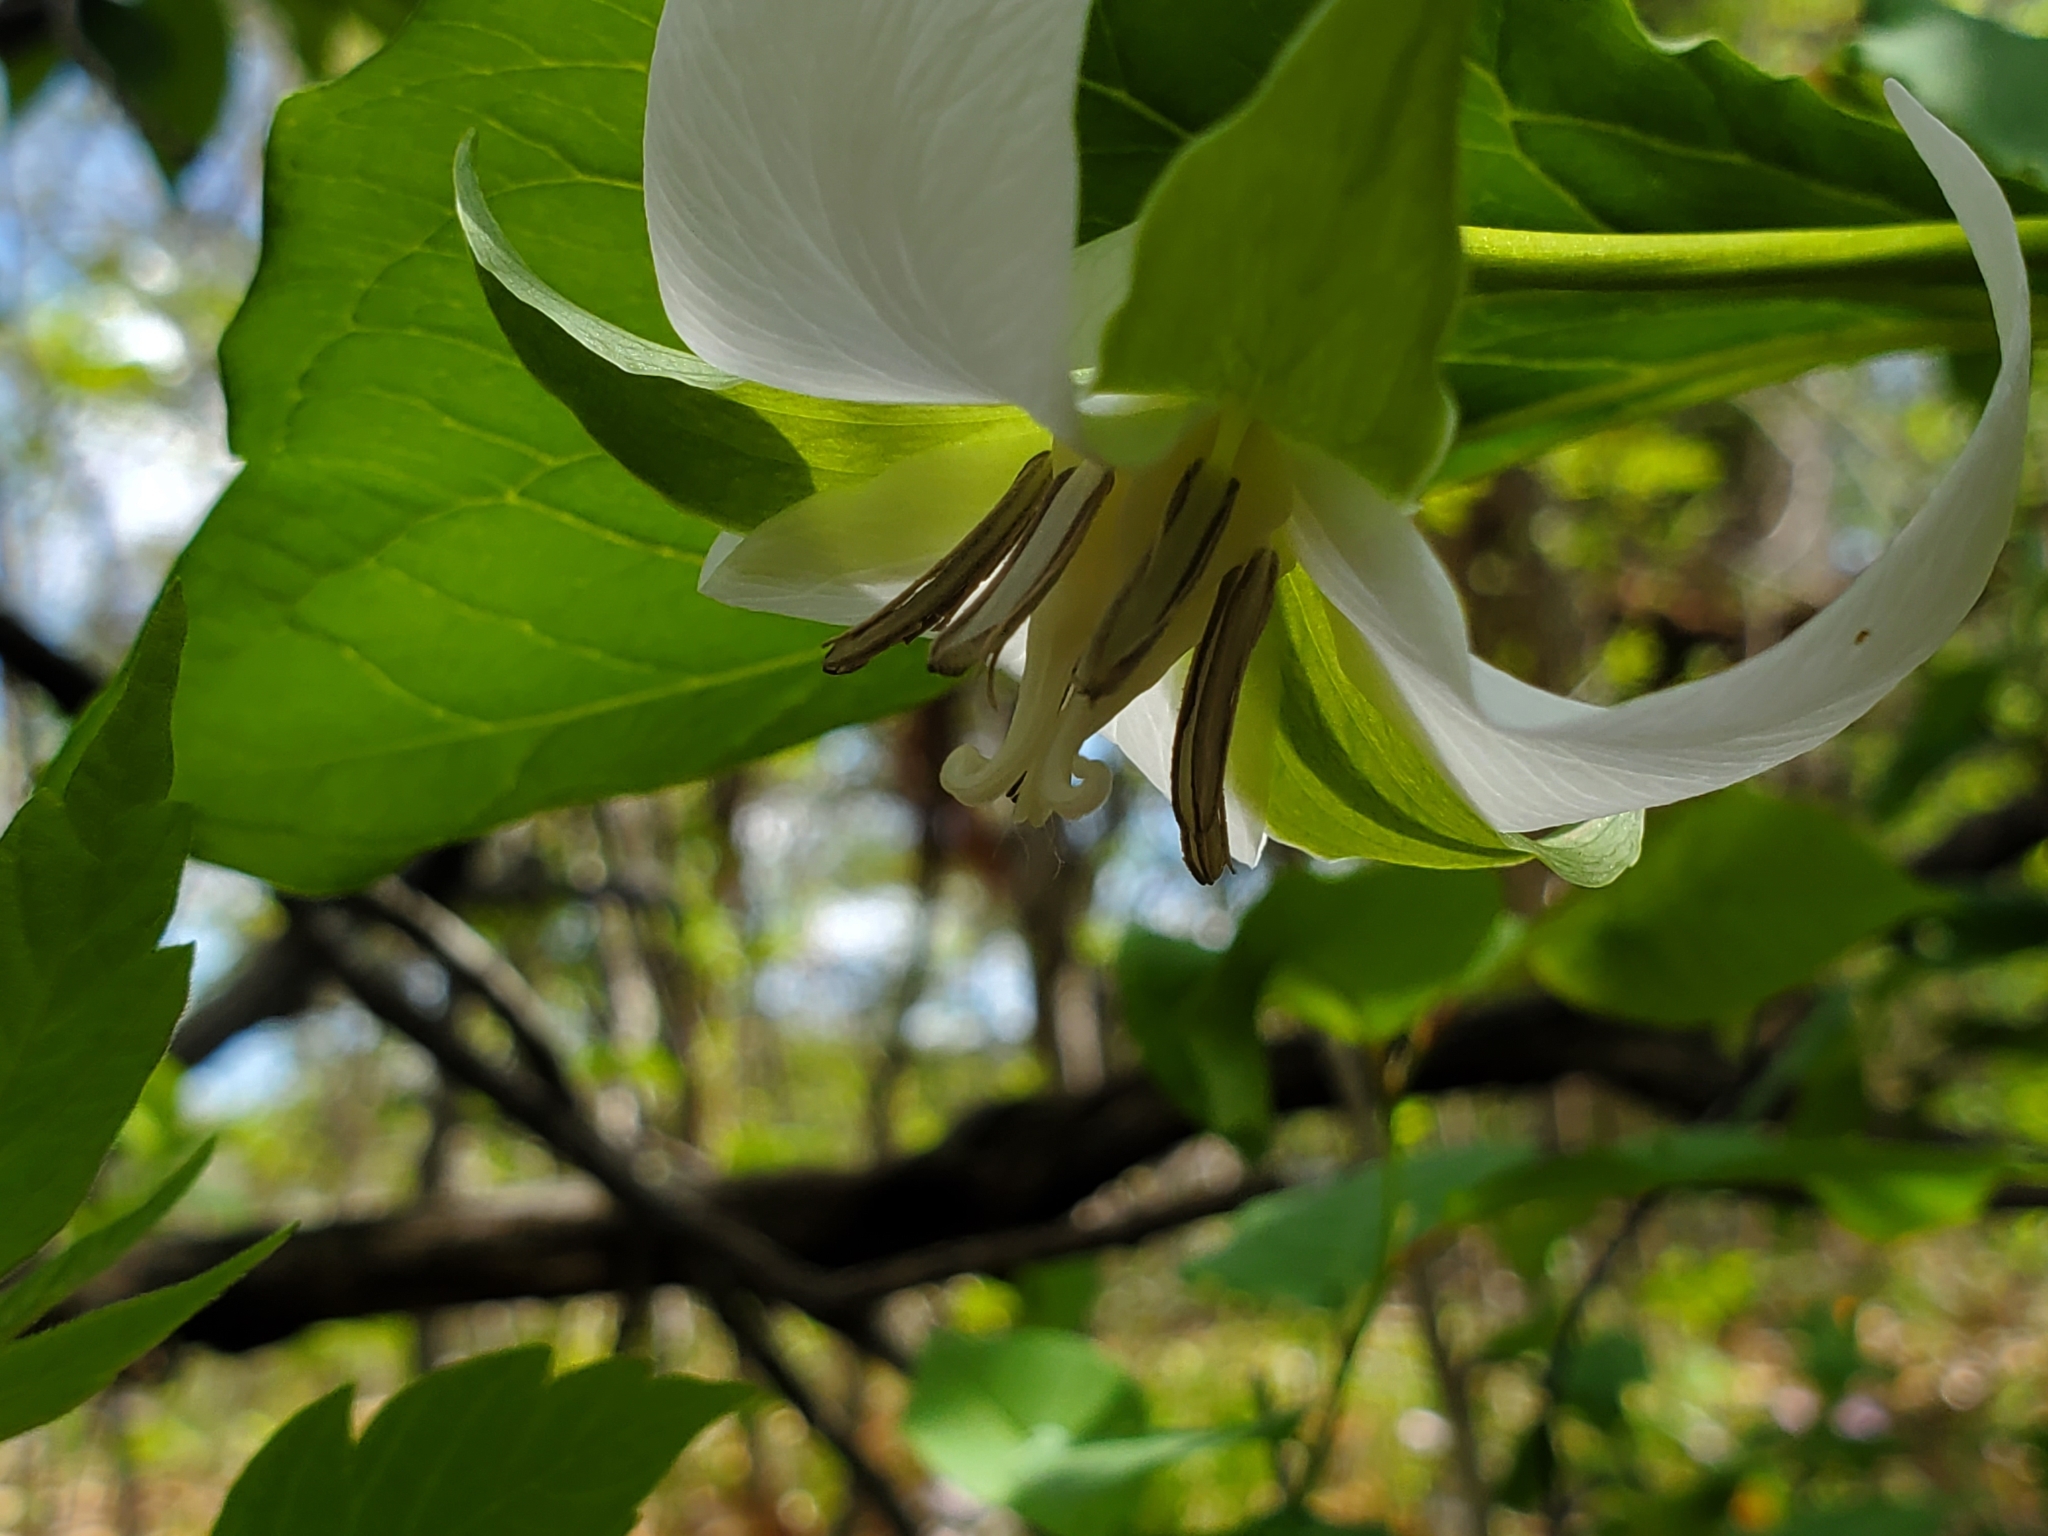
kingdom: Plantae
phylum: Tracheophyta
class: Liliopsida
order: Liliales
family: Melanthiaceae
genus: Trillium
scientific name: Trillium flexipes
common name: Drooping trillium
